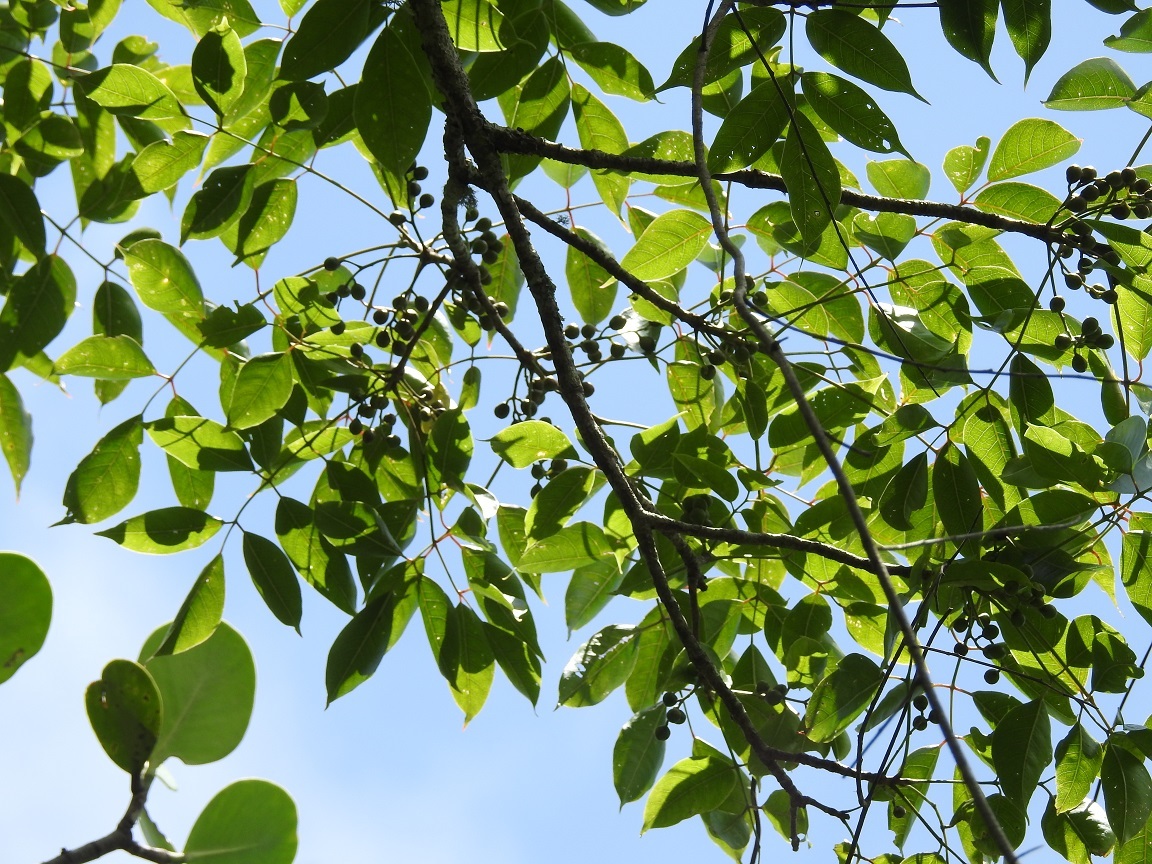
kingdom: Plantae
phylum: Tracheophyta
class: Magnoliopsida
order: Sapindales
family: Burseraceae
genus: Bursera
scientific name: Bursera simaruba
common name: Turpentine tree
